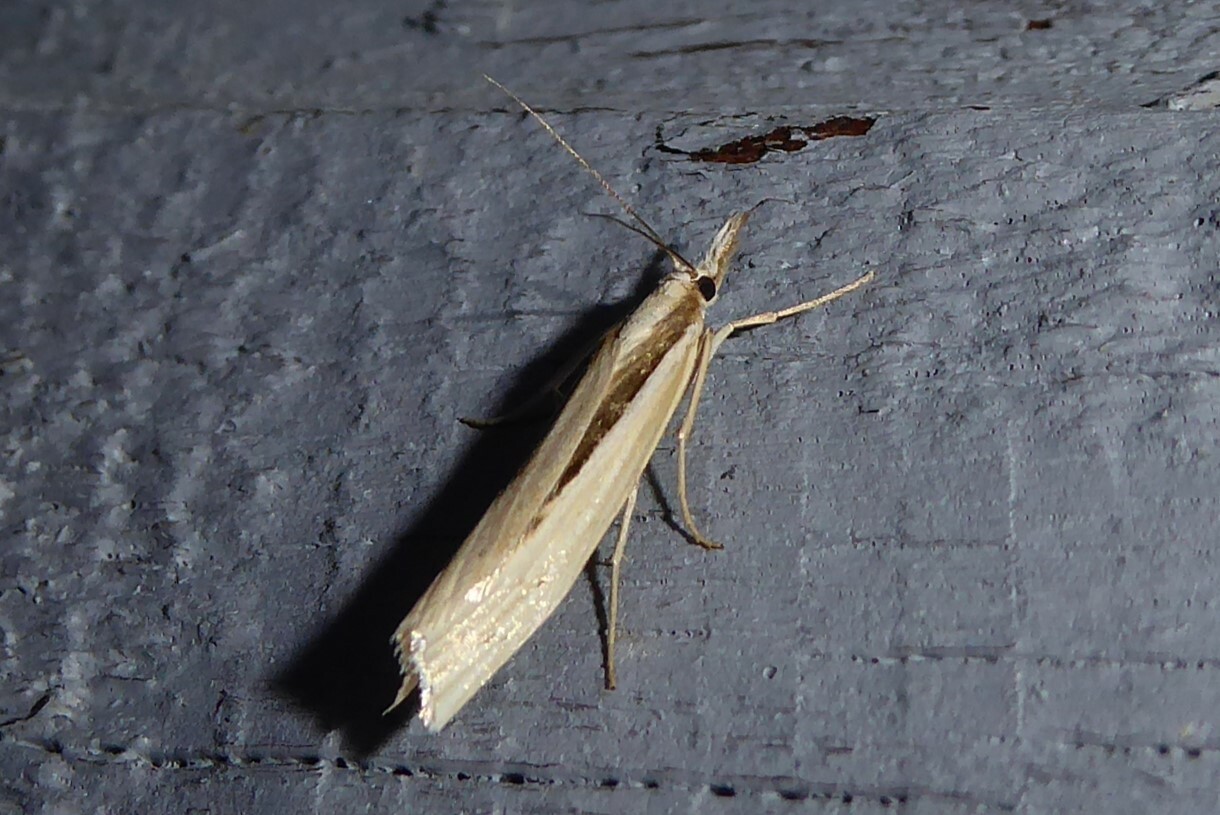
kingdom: Animalia
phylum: Arthropoda
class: Insecta
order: Lepidoptera
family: Crambidae
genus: Orocrambus
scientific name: Orocrambus ramosellus
